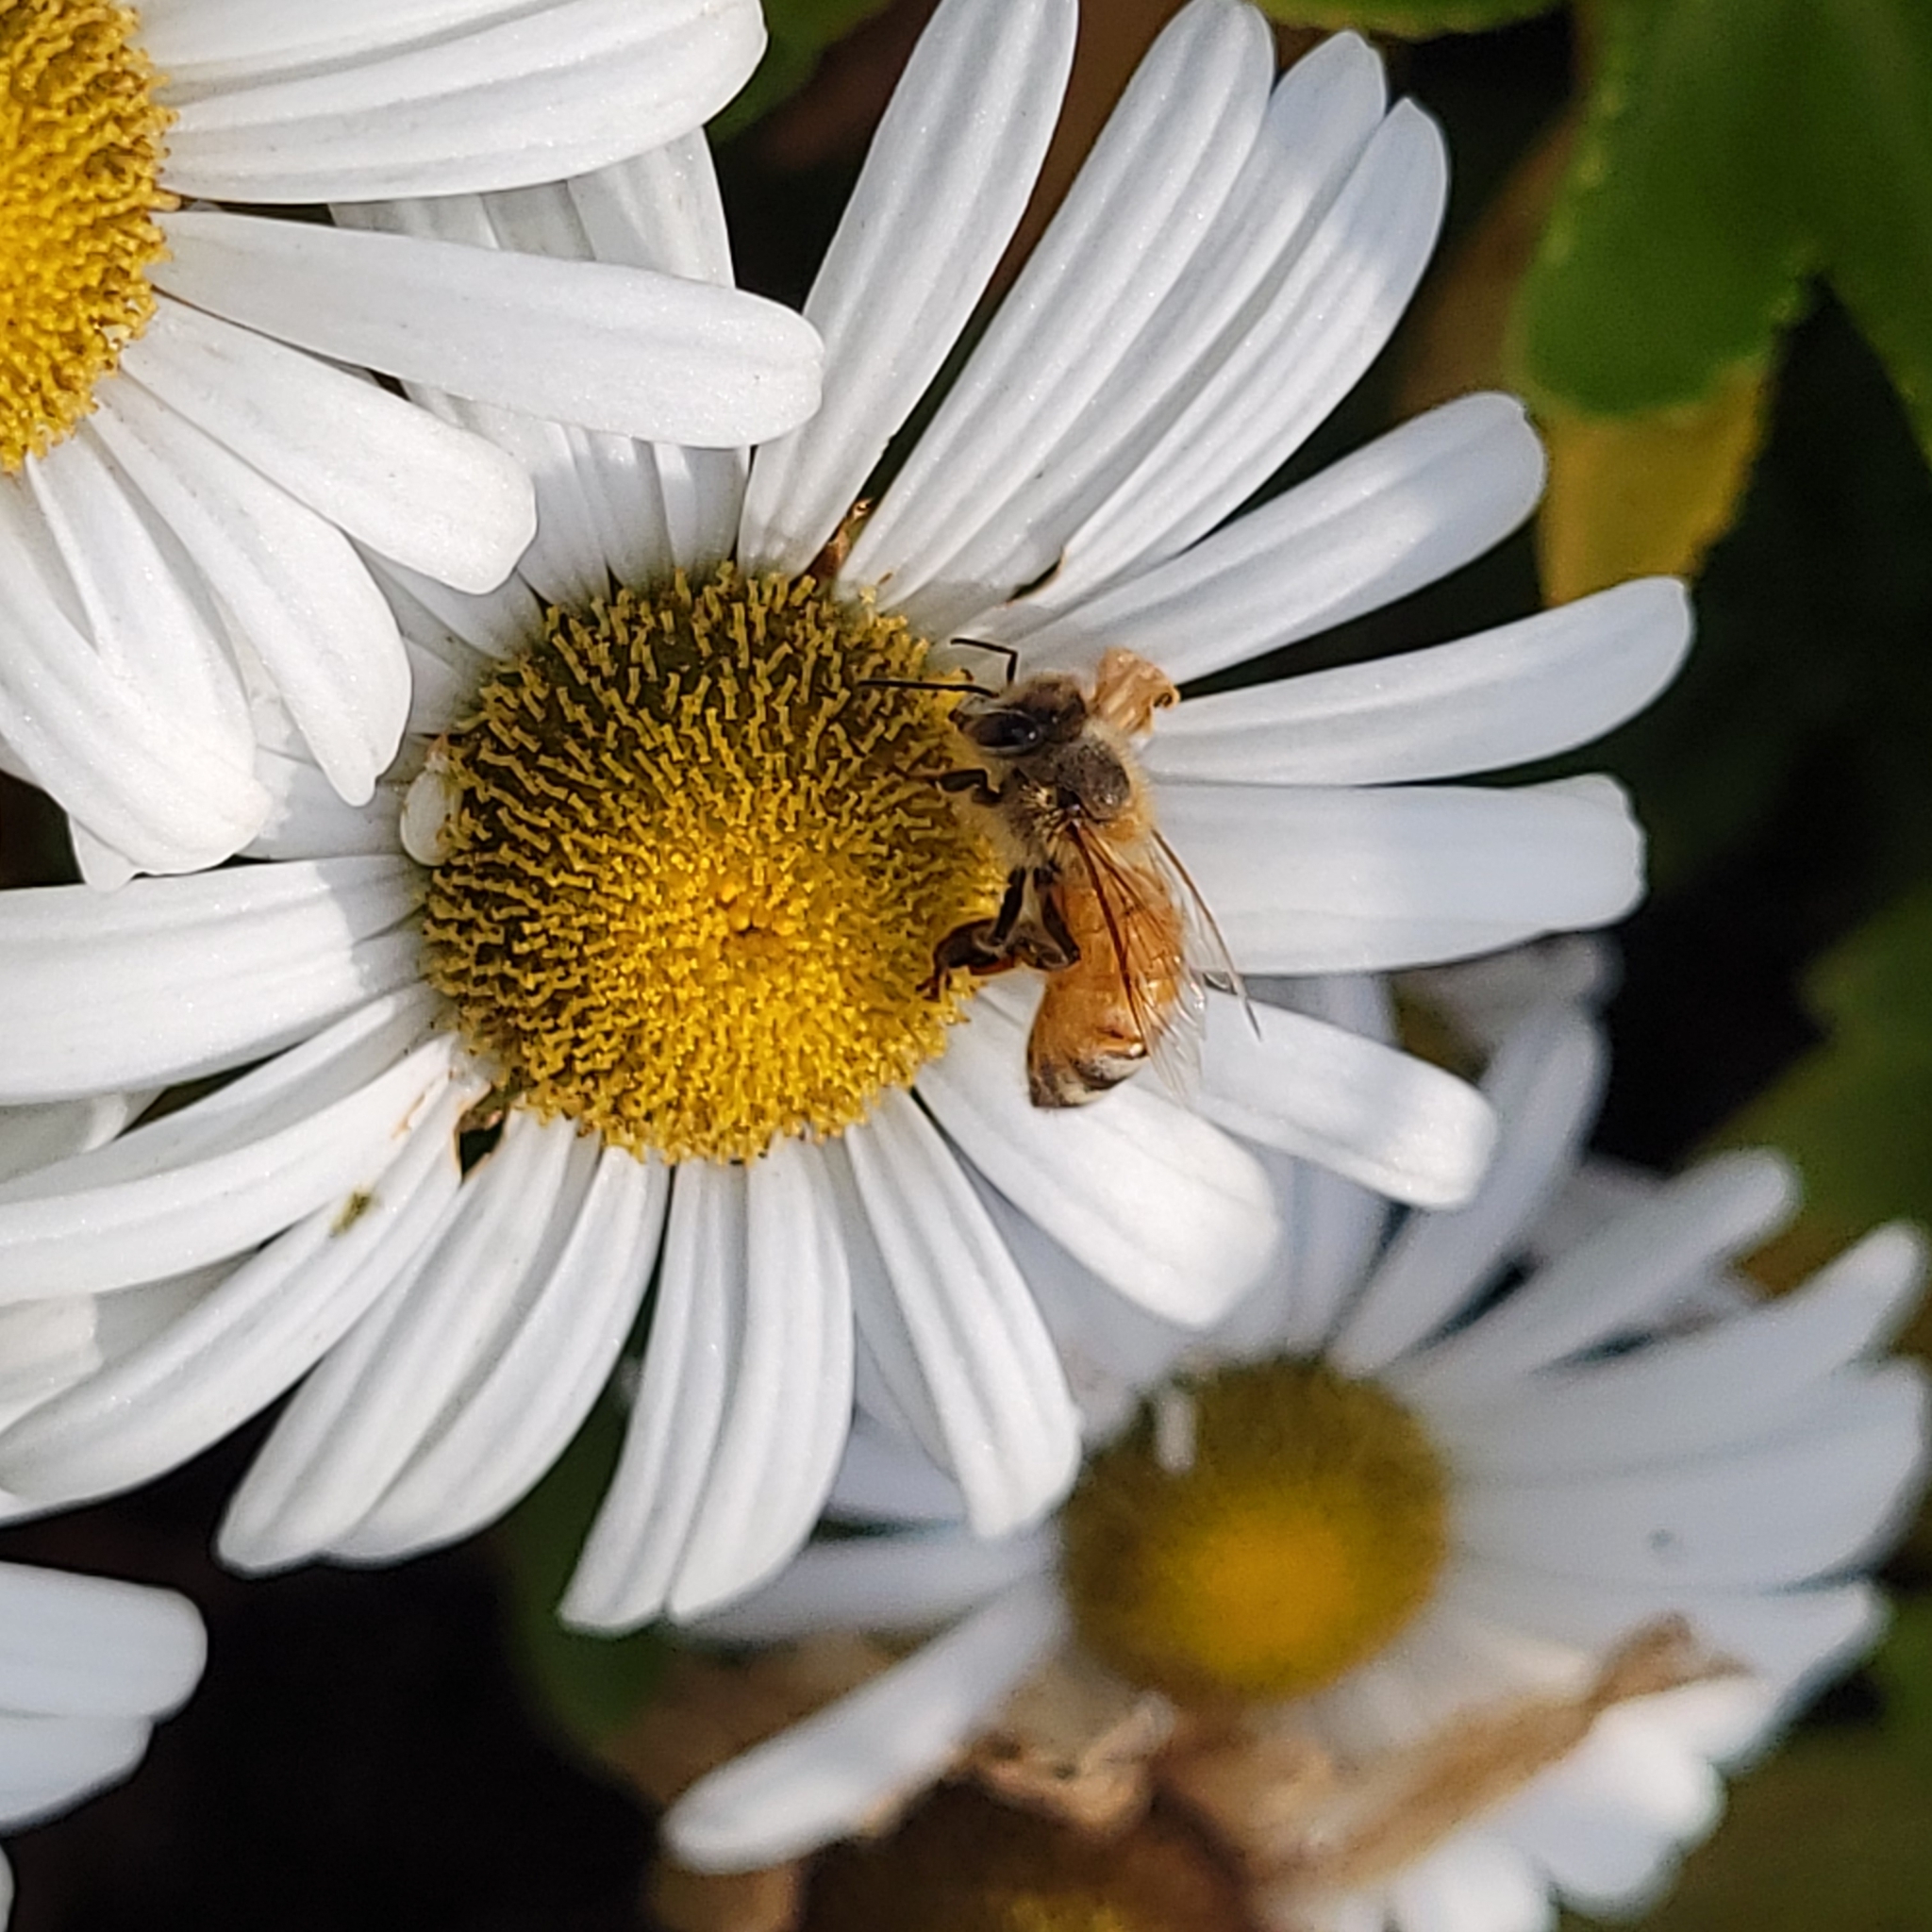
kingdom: Animalia
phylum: Arthropoda
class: Insecta
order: Hymenoptera
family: Apidae
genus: Apis
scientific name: Apis mellifera
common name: Honey bee
